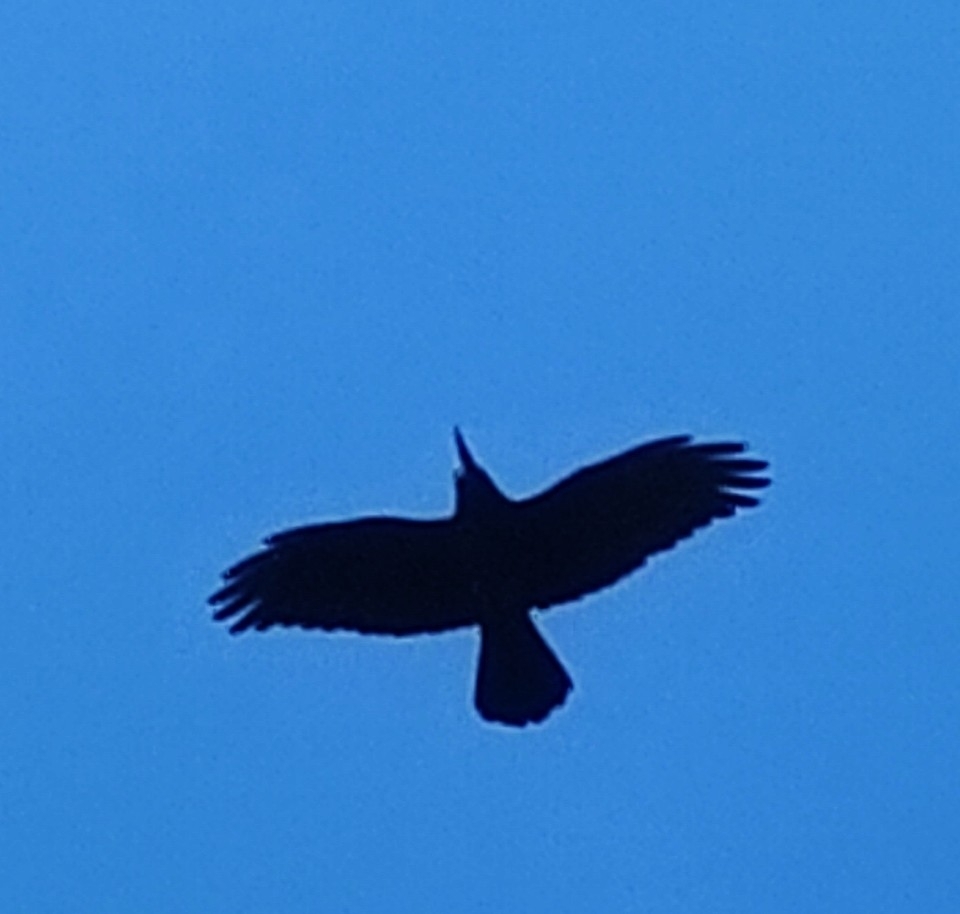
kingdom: Animalia
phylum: Chordata
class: Aves
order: Passeriformes
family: Corvidae
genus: Corvus
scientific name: Corvus frugilegus
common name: Rook
